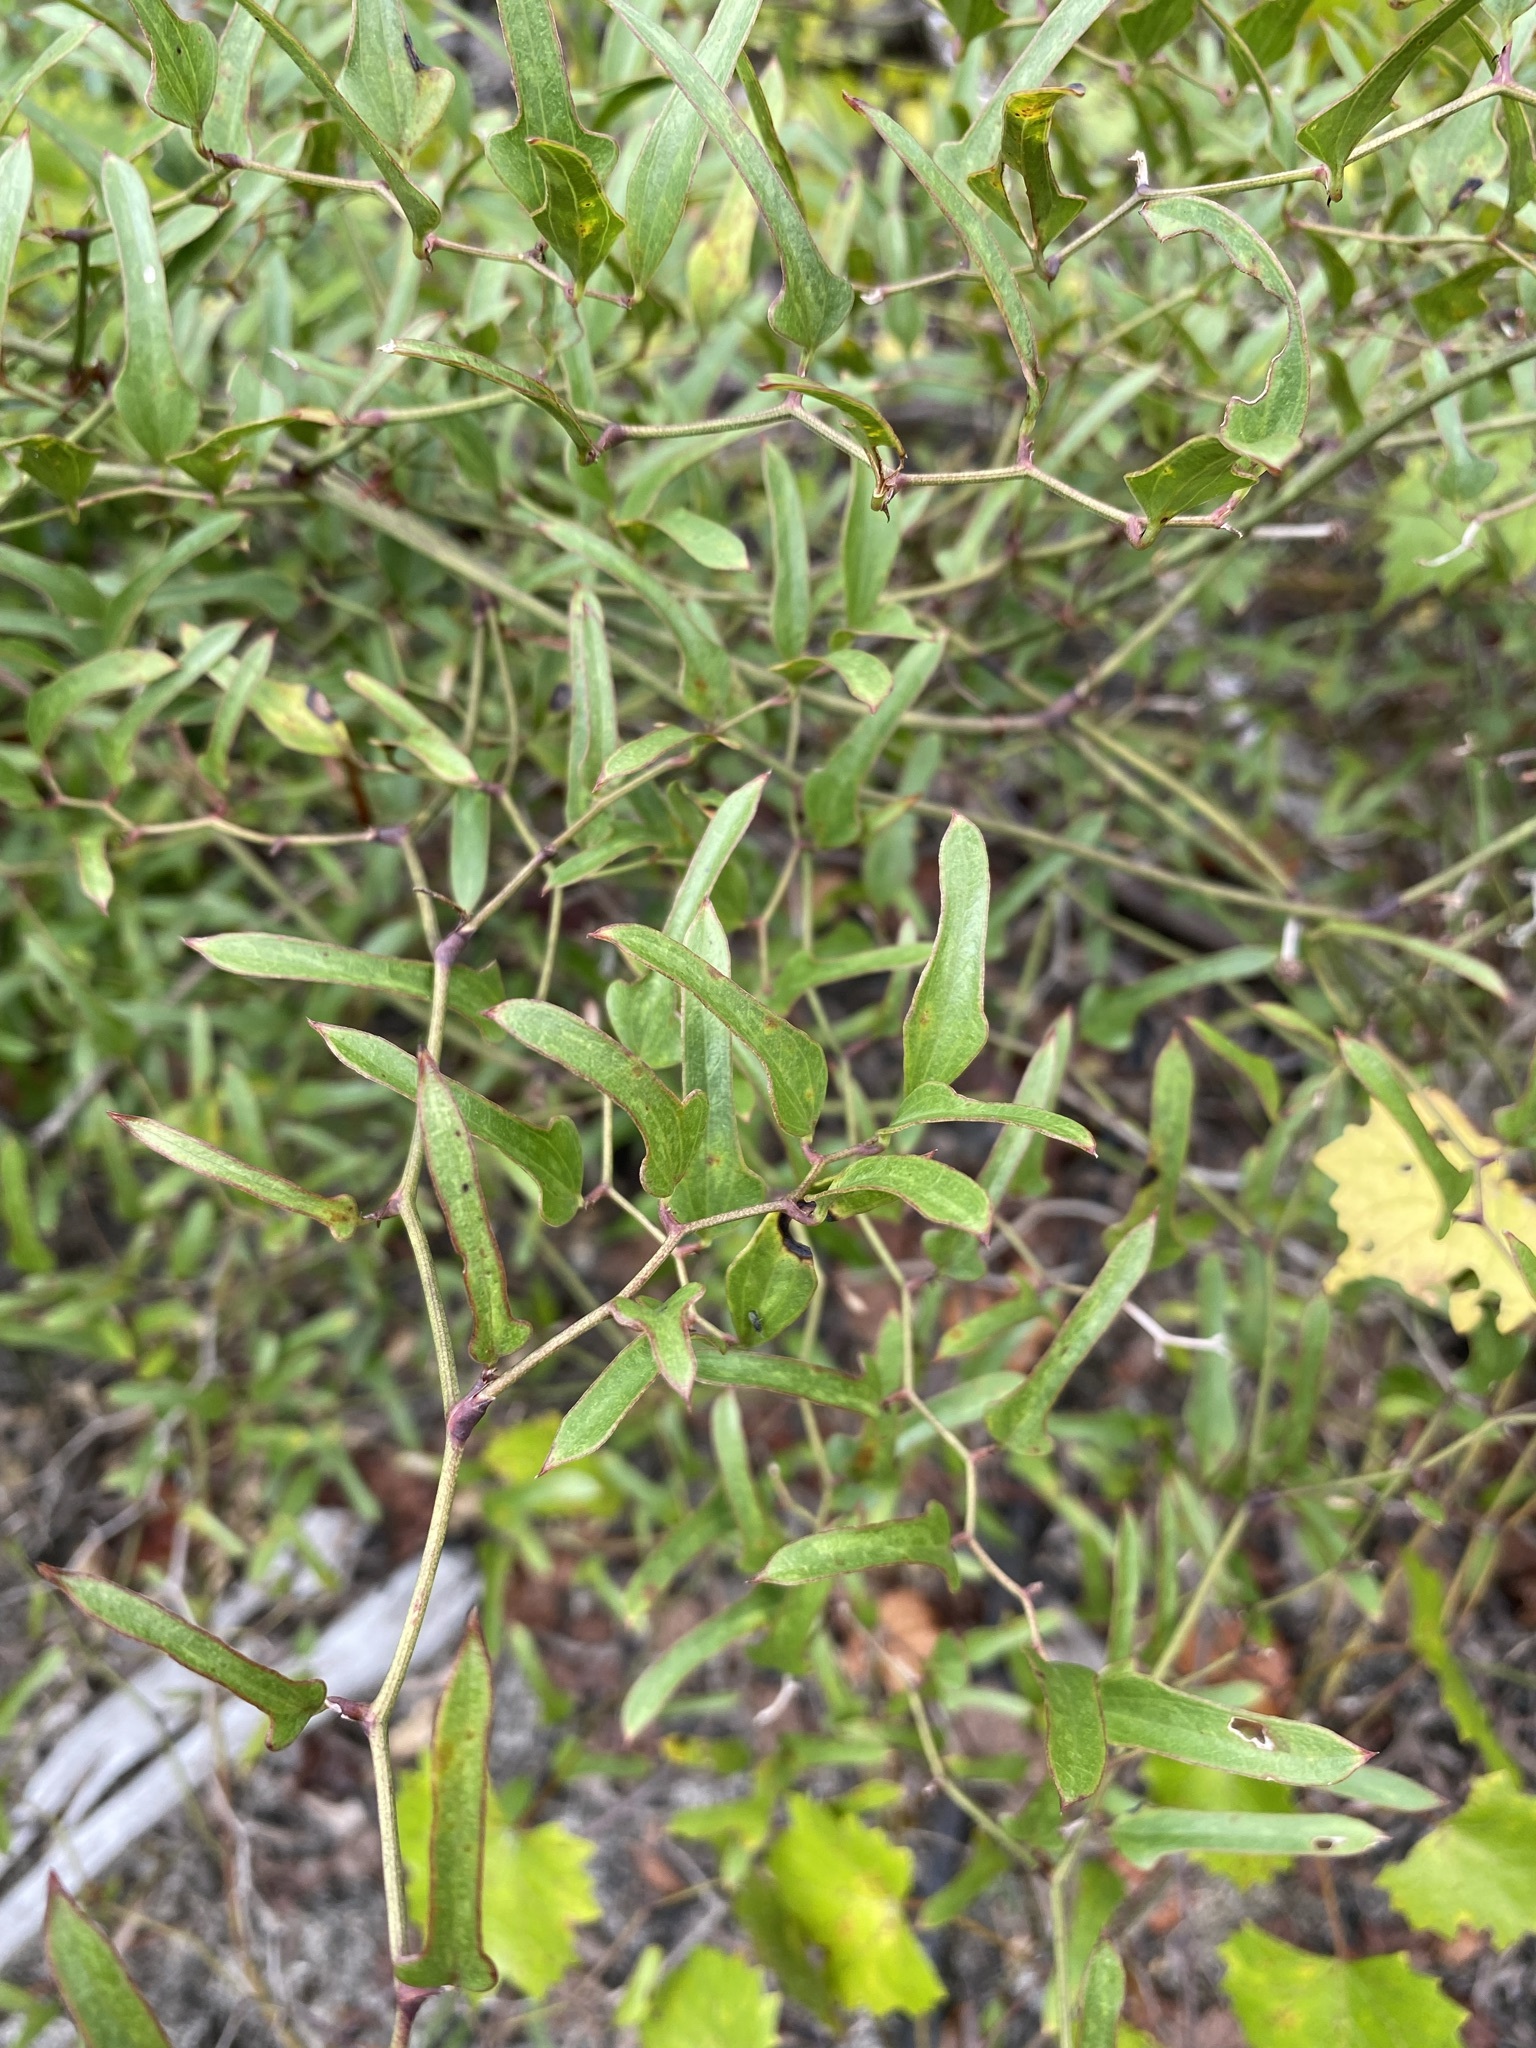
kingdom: Plantae
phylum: Tracheophyta
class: Liliopsida
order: Liliales
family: Smilacaceae
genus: Smilax
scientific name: Smilax auriculata
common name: Wild bamboo
